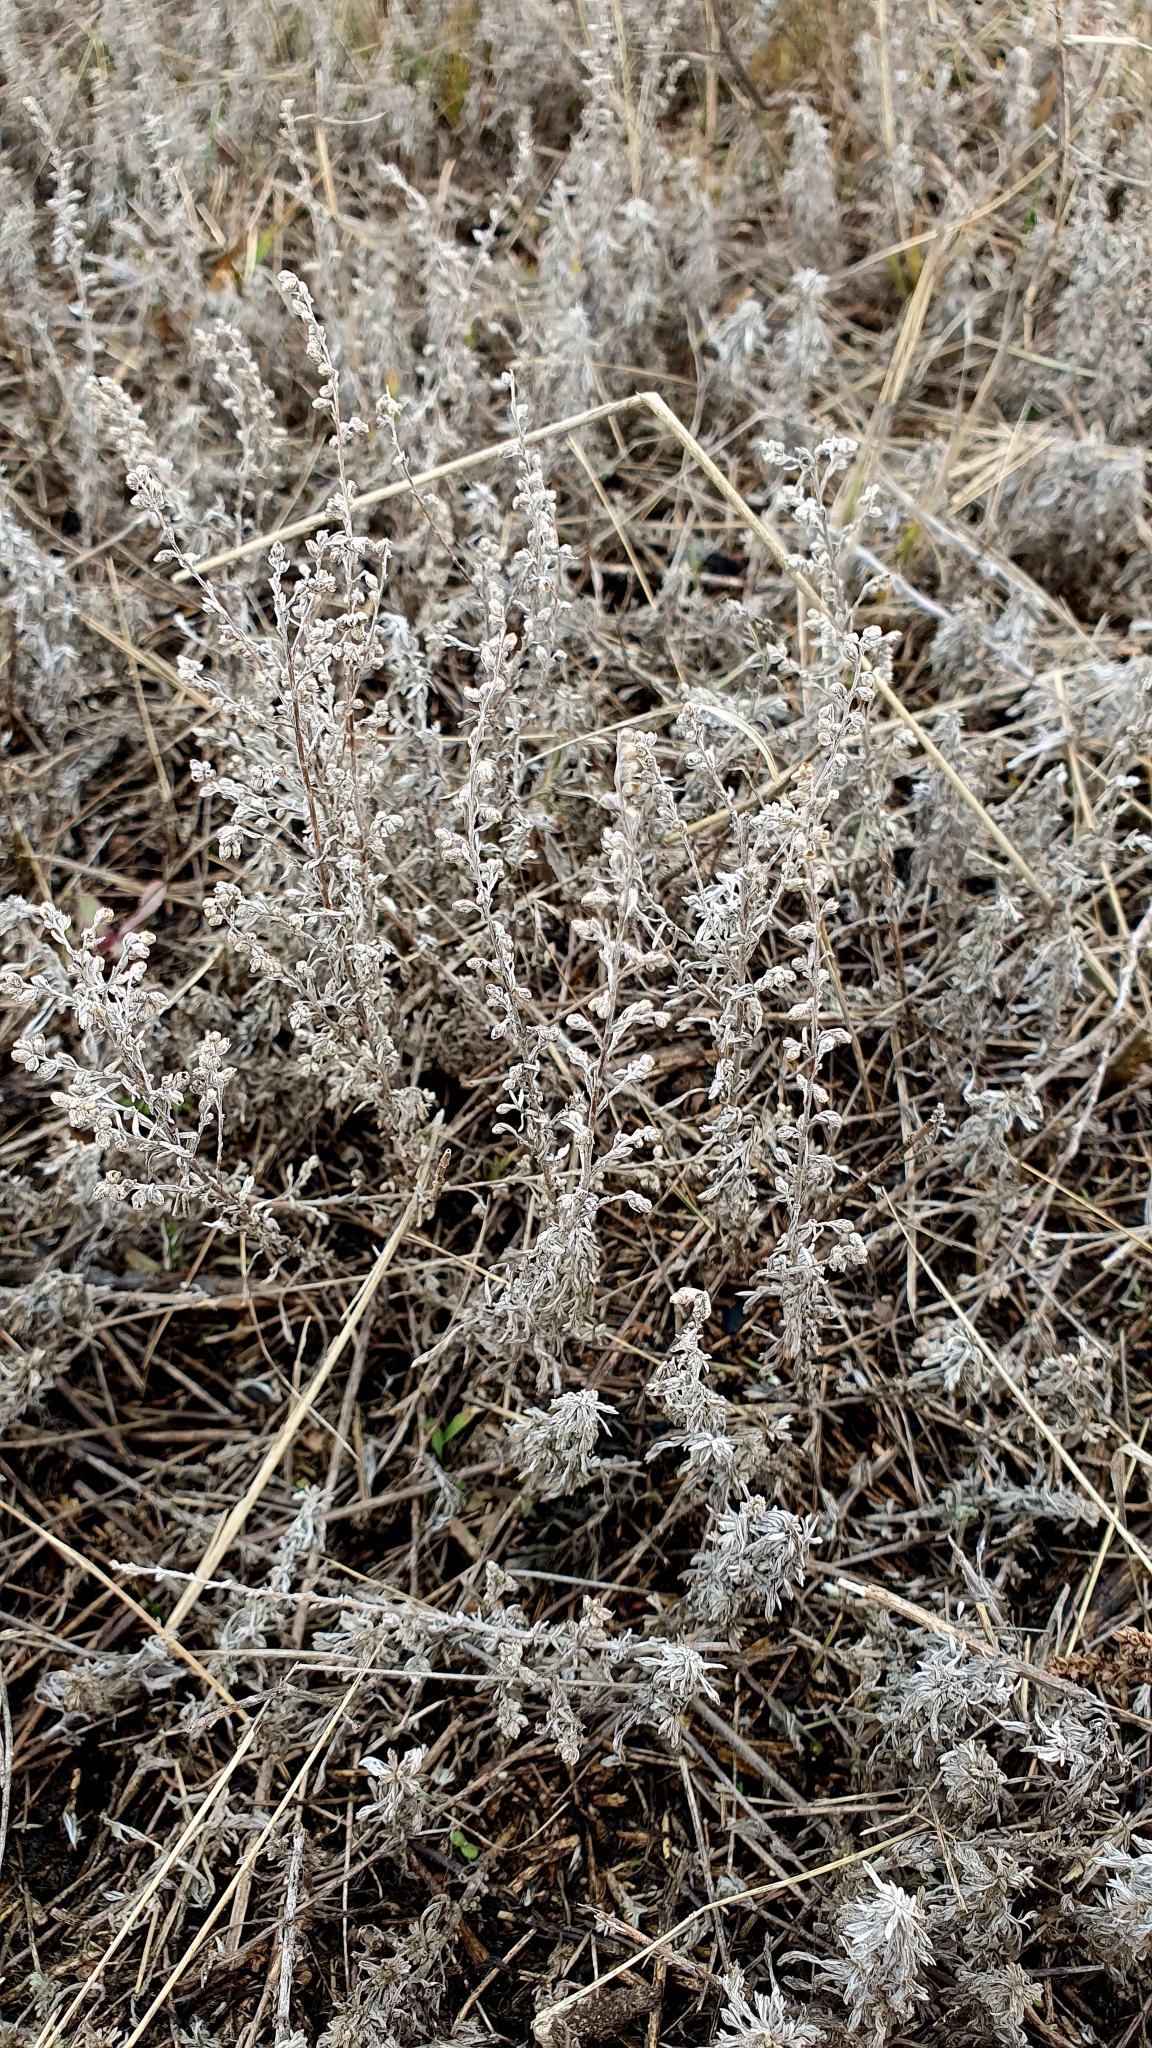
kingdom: Plantae
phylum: Tracheophyta
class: Magnoliopsida
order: Asterales
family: Asteraceae
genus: Artemisia
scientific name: Artemisia austriaca
